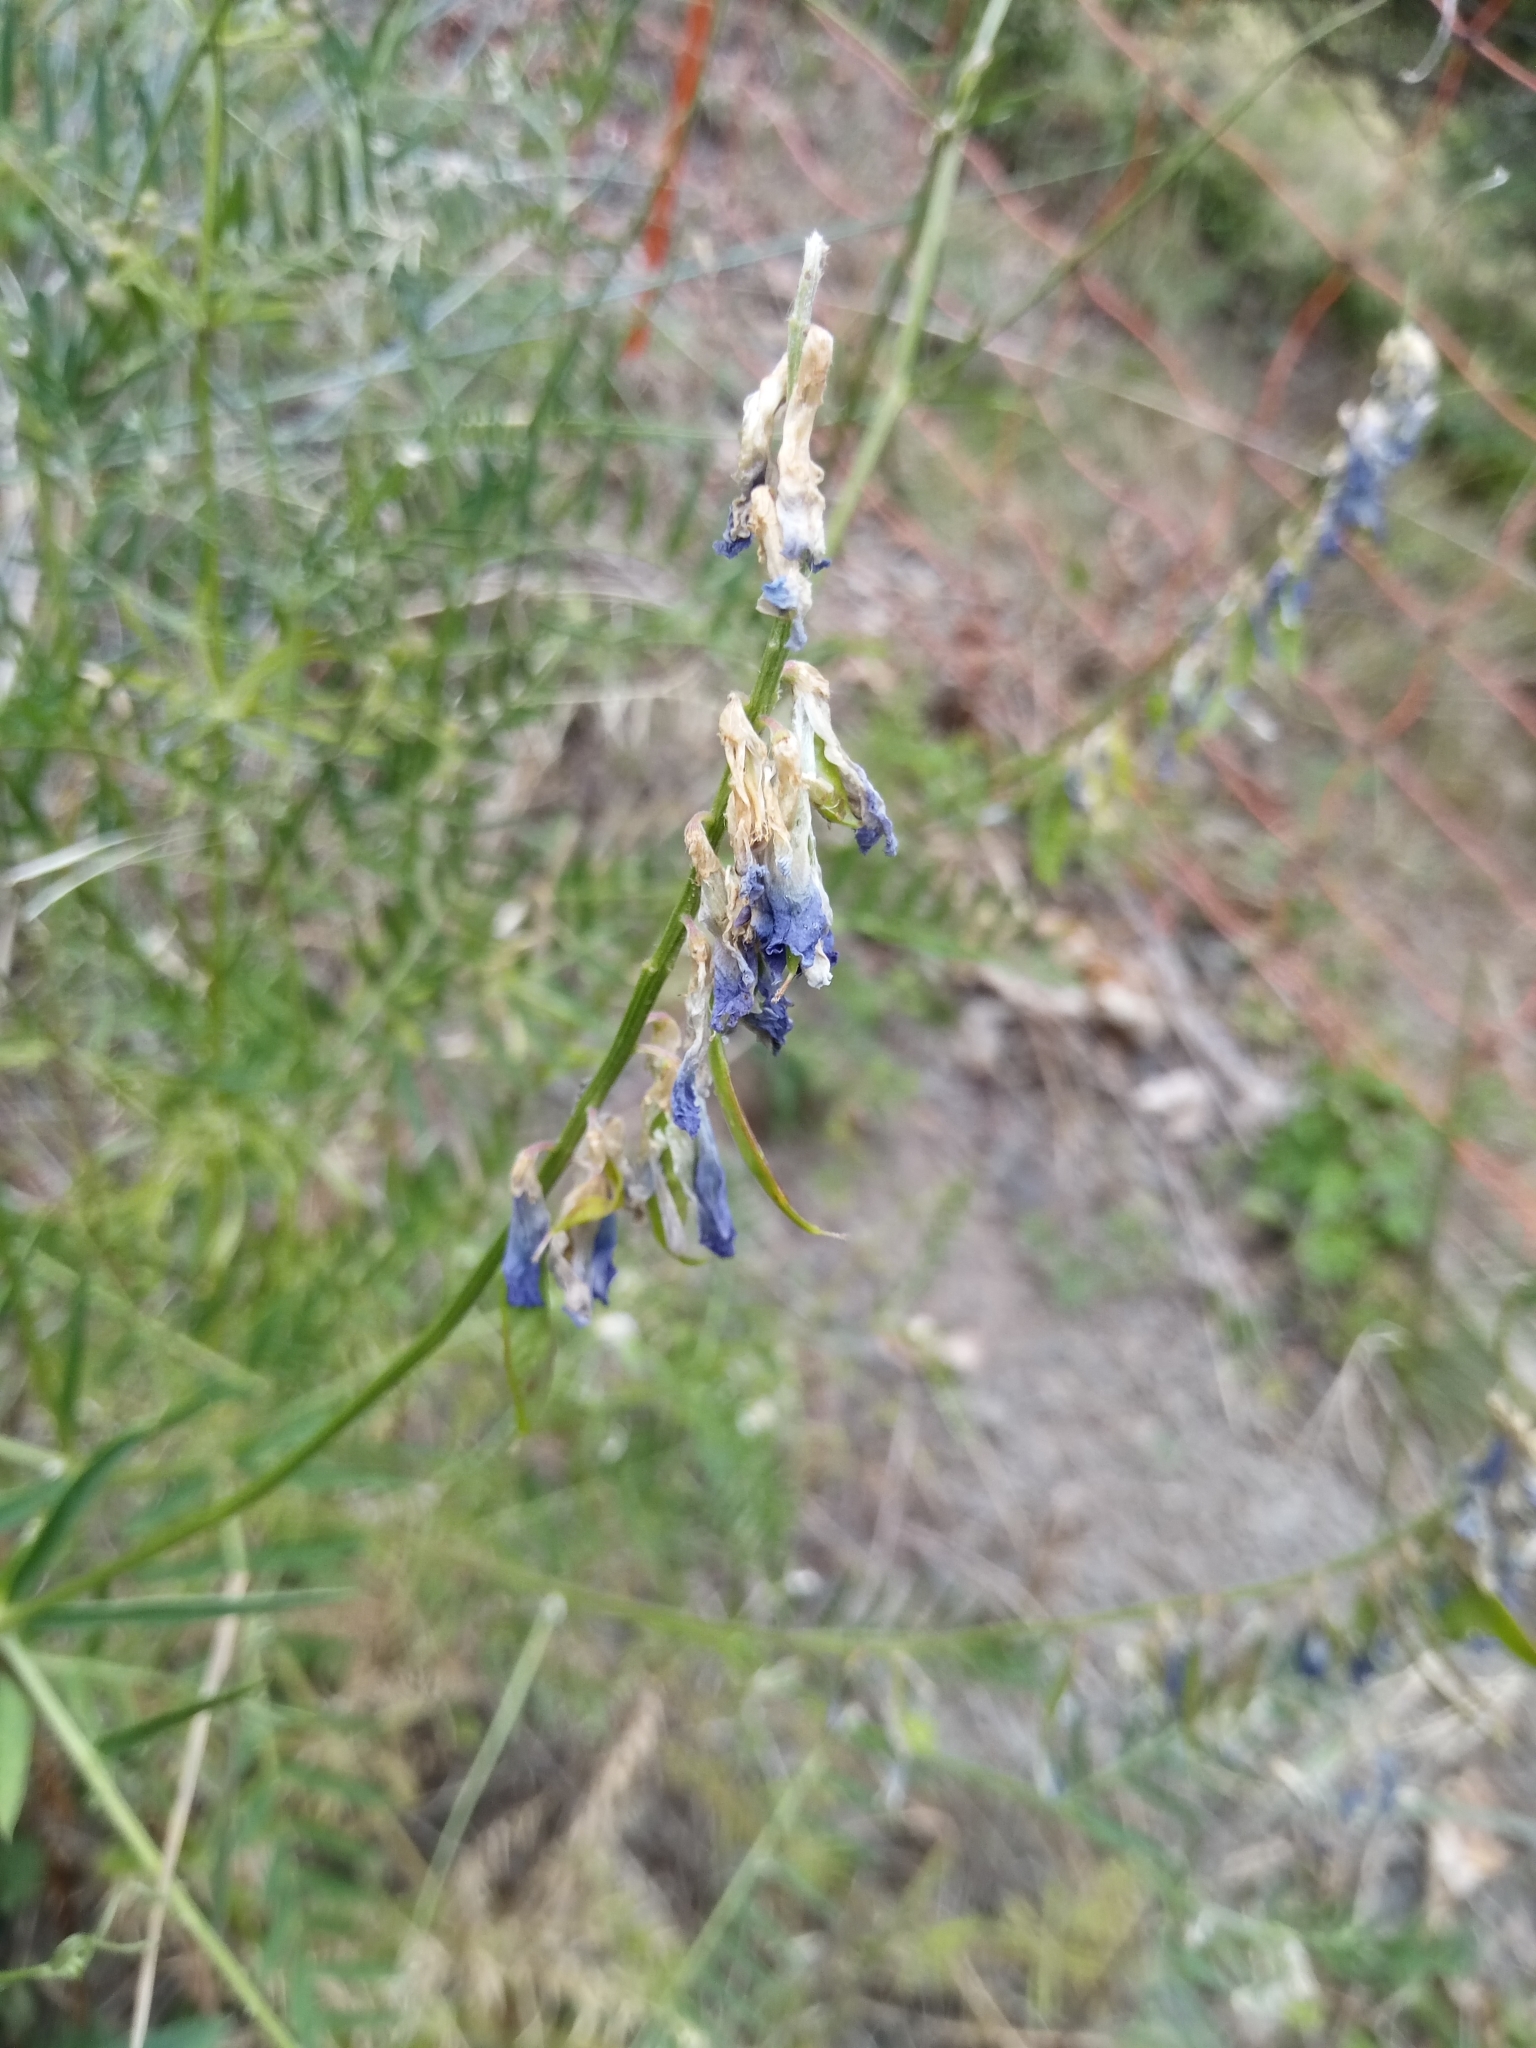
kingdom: Plantae
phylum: Tracheophyta
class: Magnoliopsida
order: Fabales
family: Fabaceae
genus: Vicia
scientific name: Vicia tenuifolia
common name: Fine-leaved vetch
